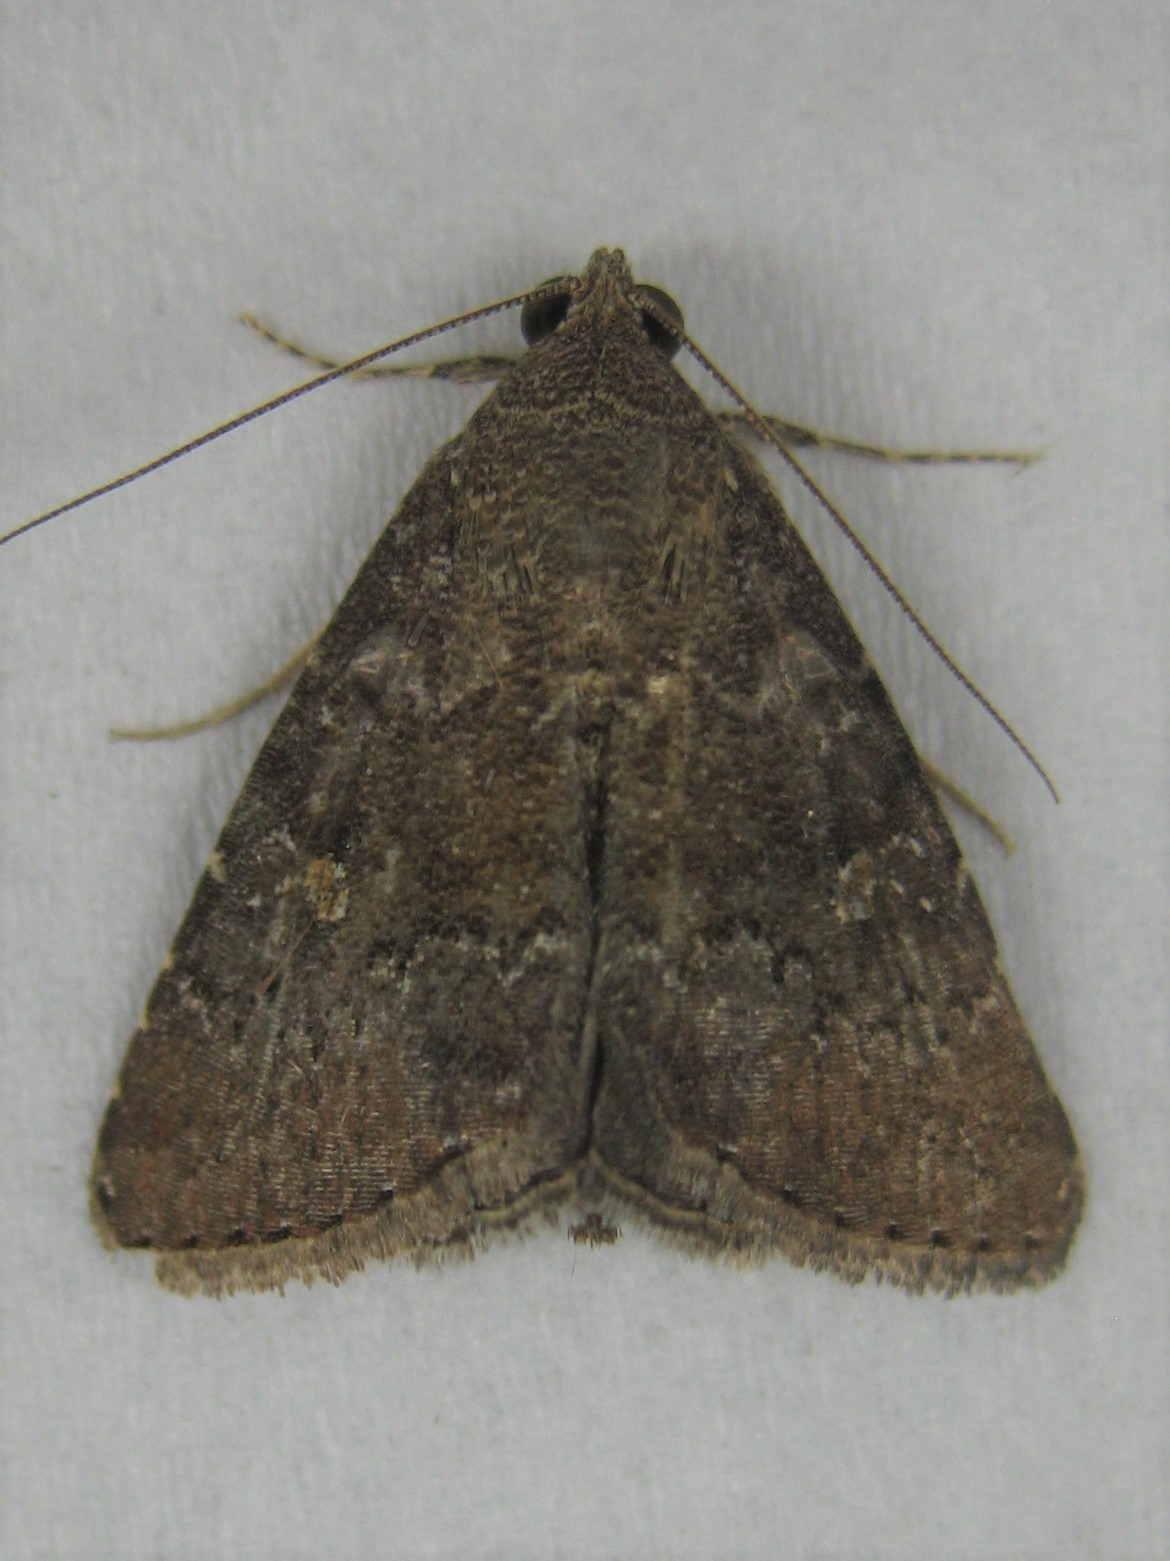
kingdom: Animalia
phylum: Arthropoda
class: Insecta
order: Lepidoptera
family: Noctuidae
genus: Amyna
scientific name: Amyna stricta
